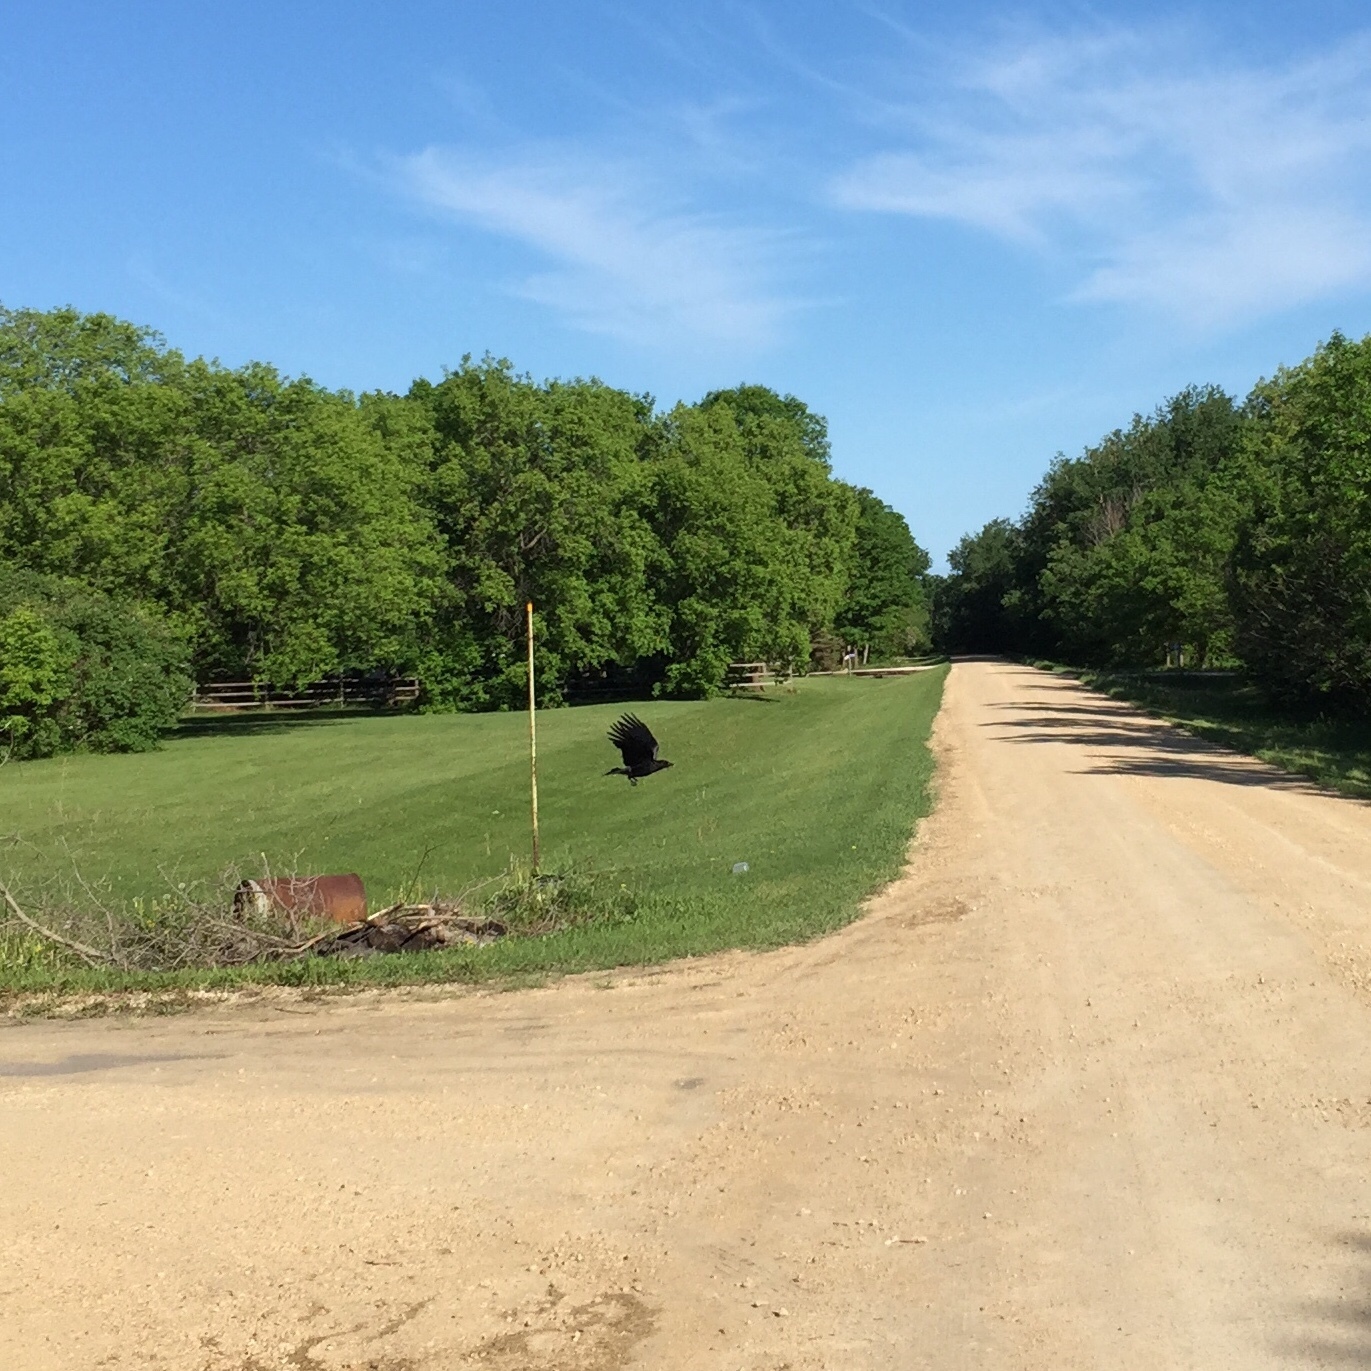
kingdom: Animalia
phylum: Chordata
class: Aves
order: Passeriformes
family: Corvidae
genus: Corvus
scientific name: Corvus brachyrhynchos
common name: American crow
